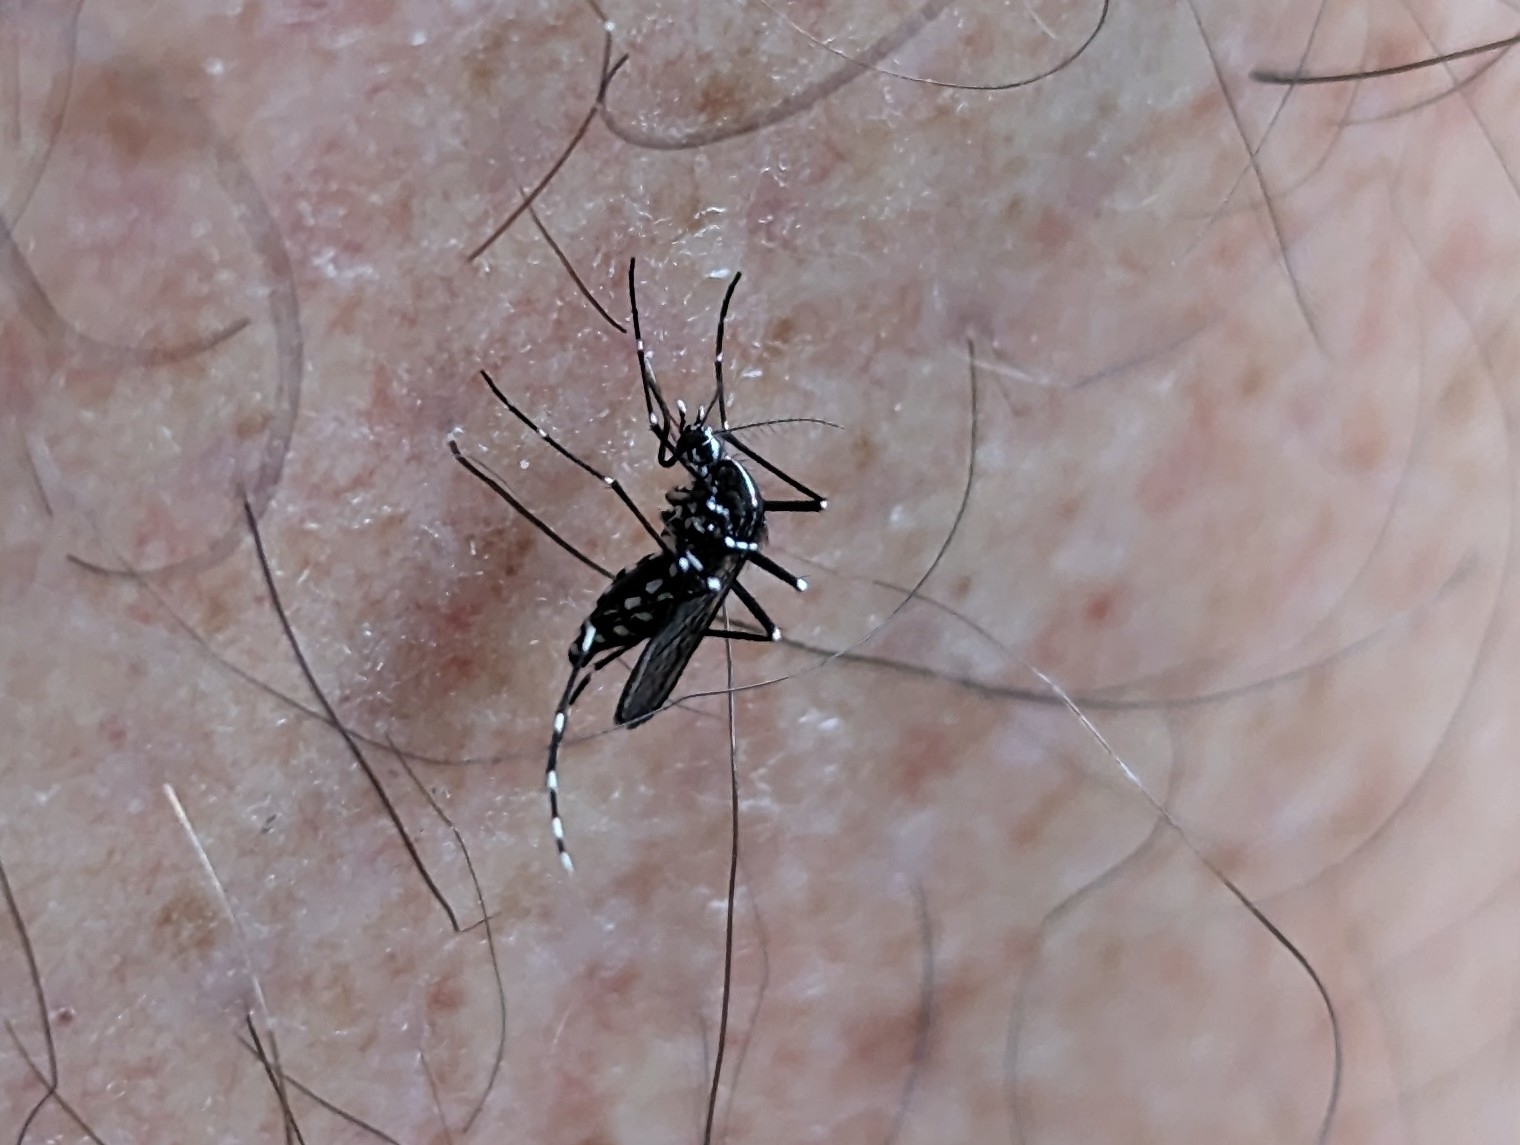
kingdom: Animalia
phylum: Arthropoda
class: Insecta
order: Diptera
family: Culicidae
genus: Aedes
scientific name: Aedes albopictus
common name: Tiger mosquito
